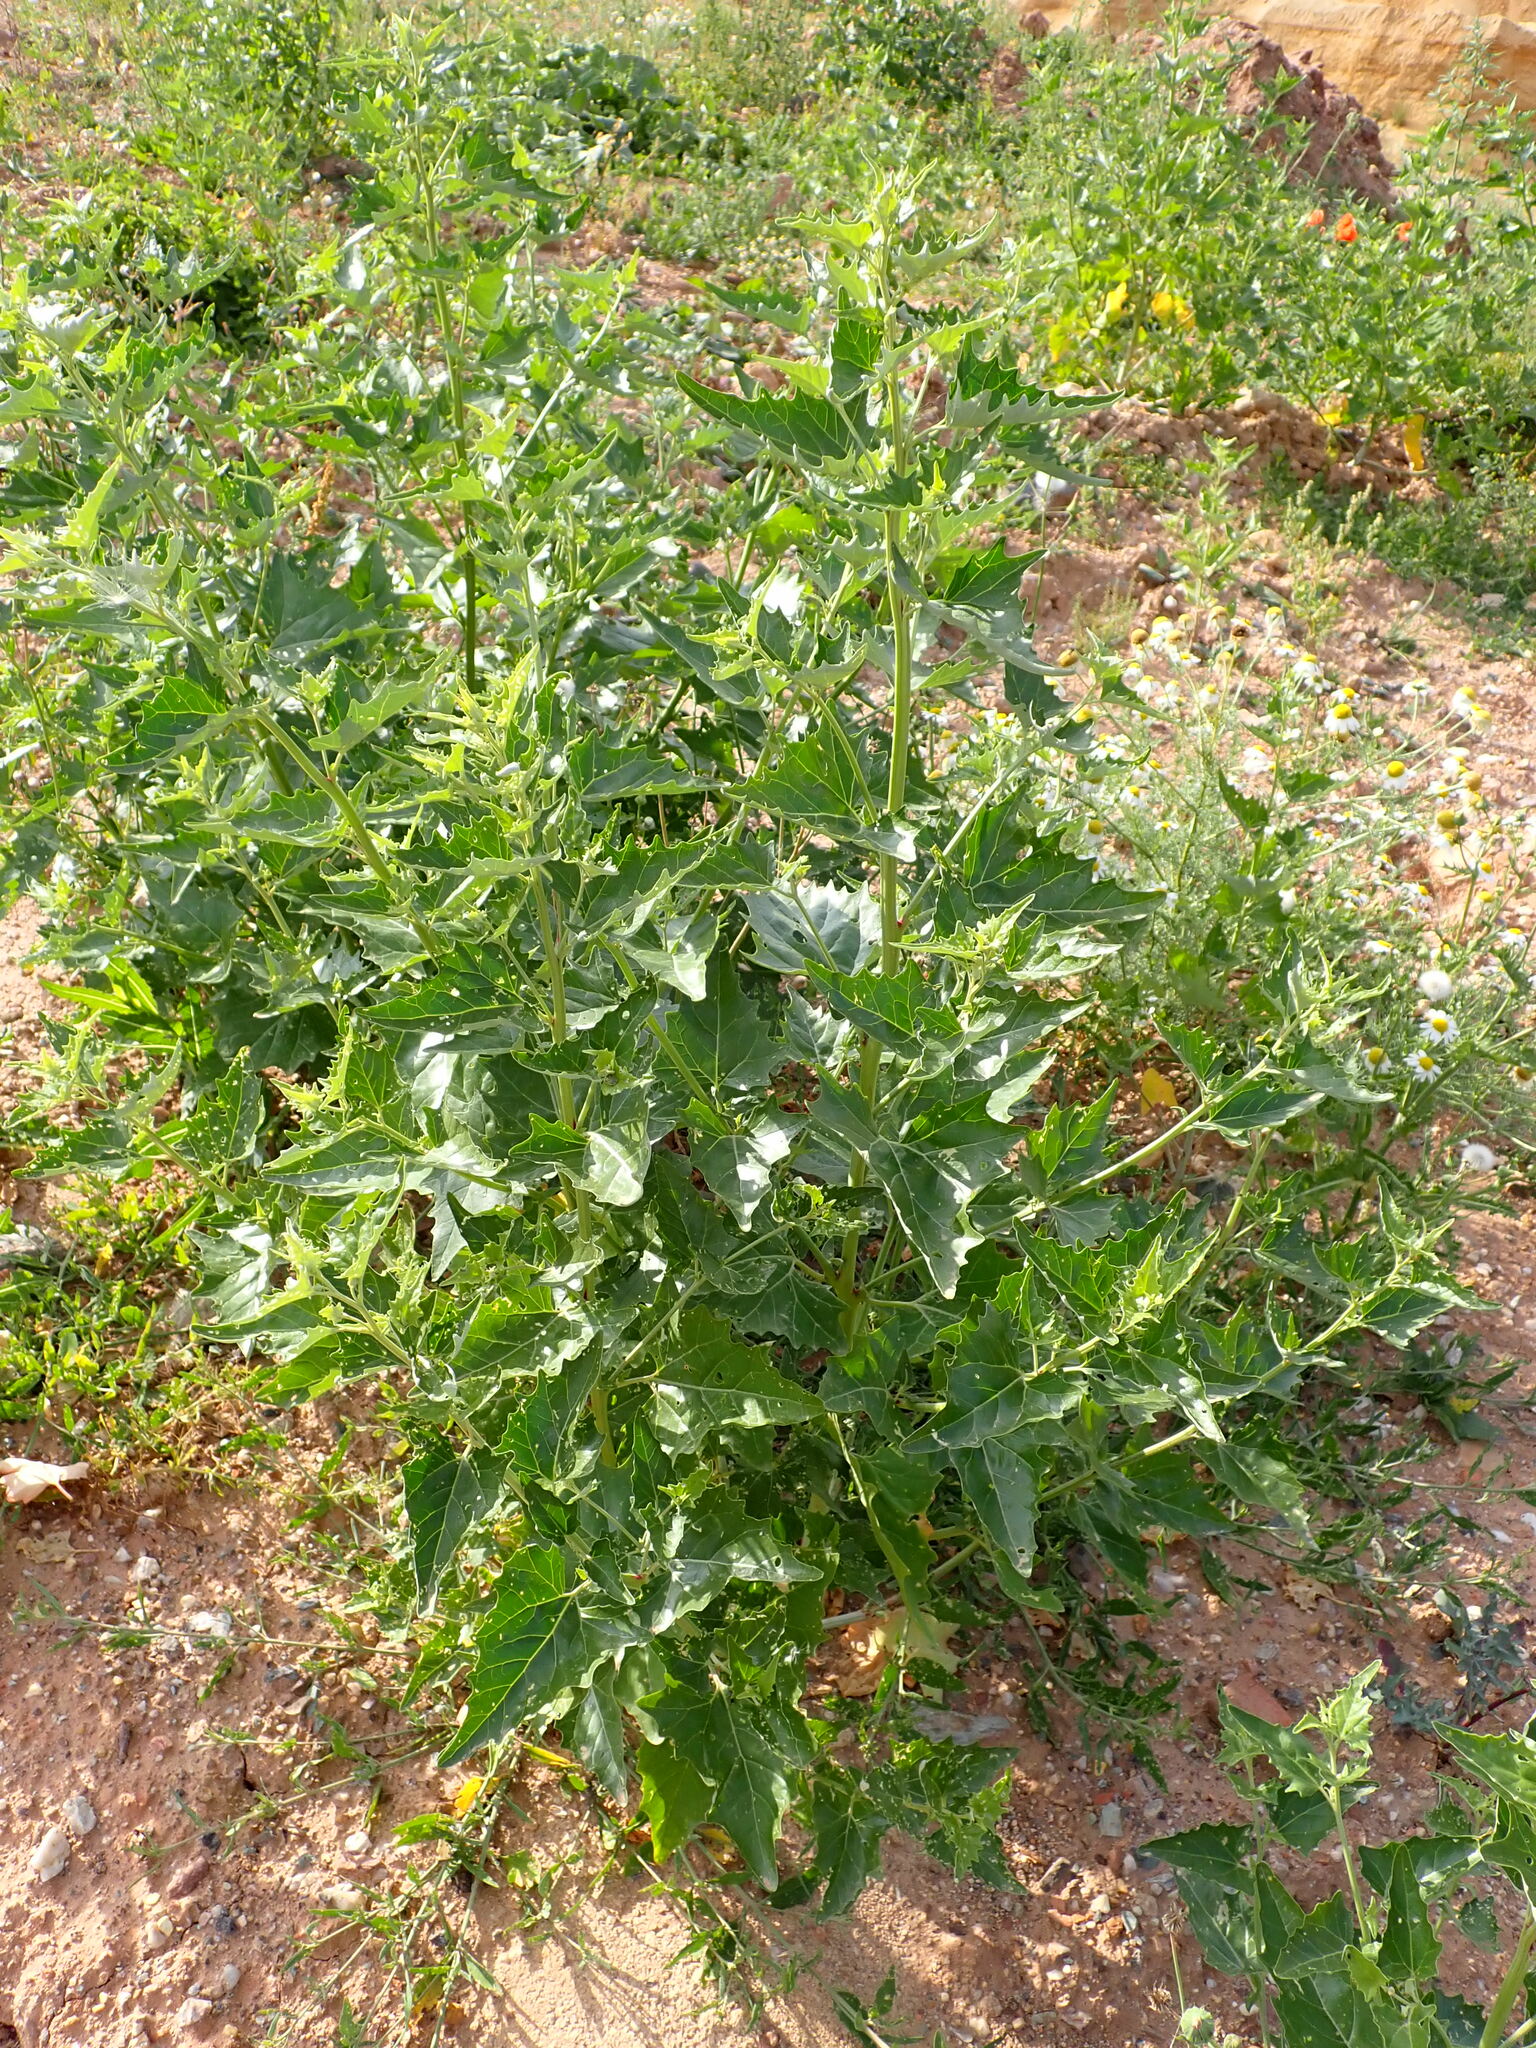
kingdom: Plantae
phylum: Tracheophyta
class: Magnoliopsida
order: Caryophyllales
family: Amaranthaceae
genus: Atriplex
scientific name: Atriplex sagittata
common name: Purple orache
